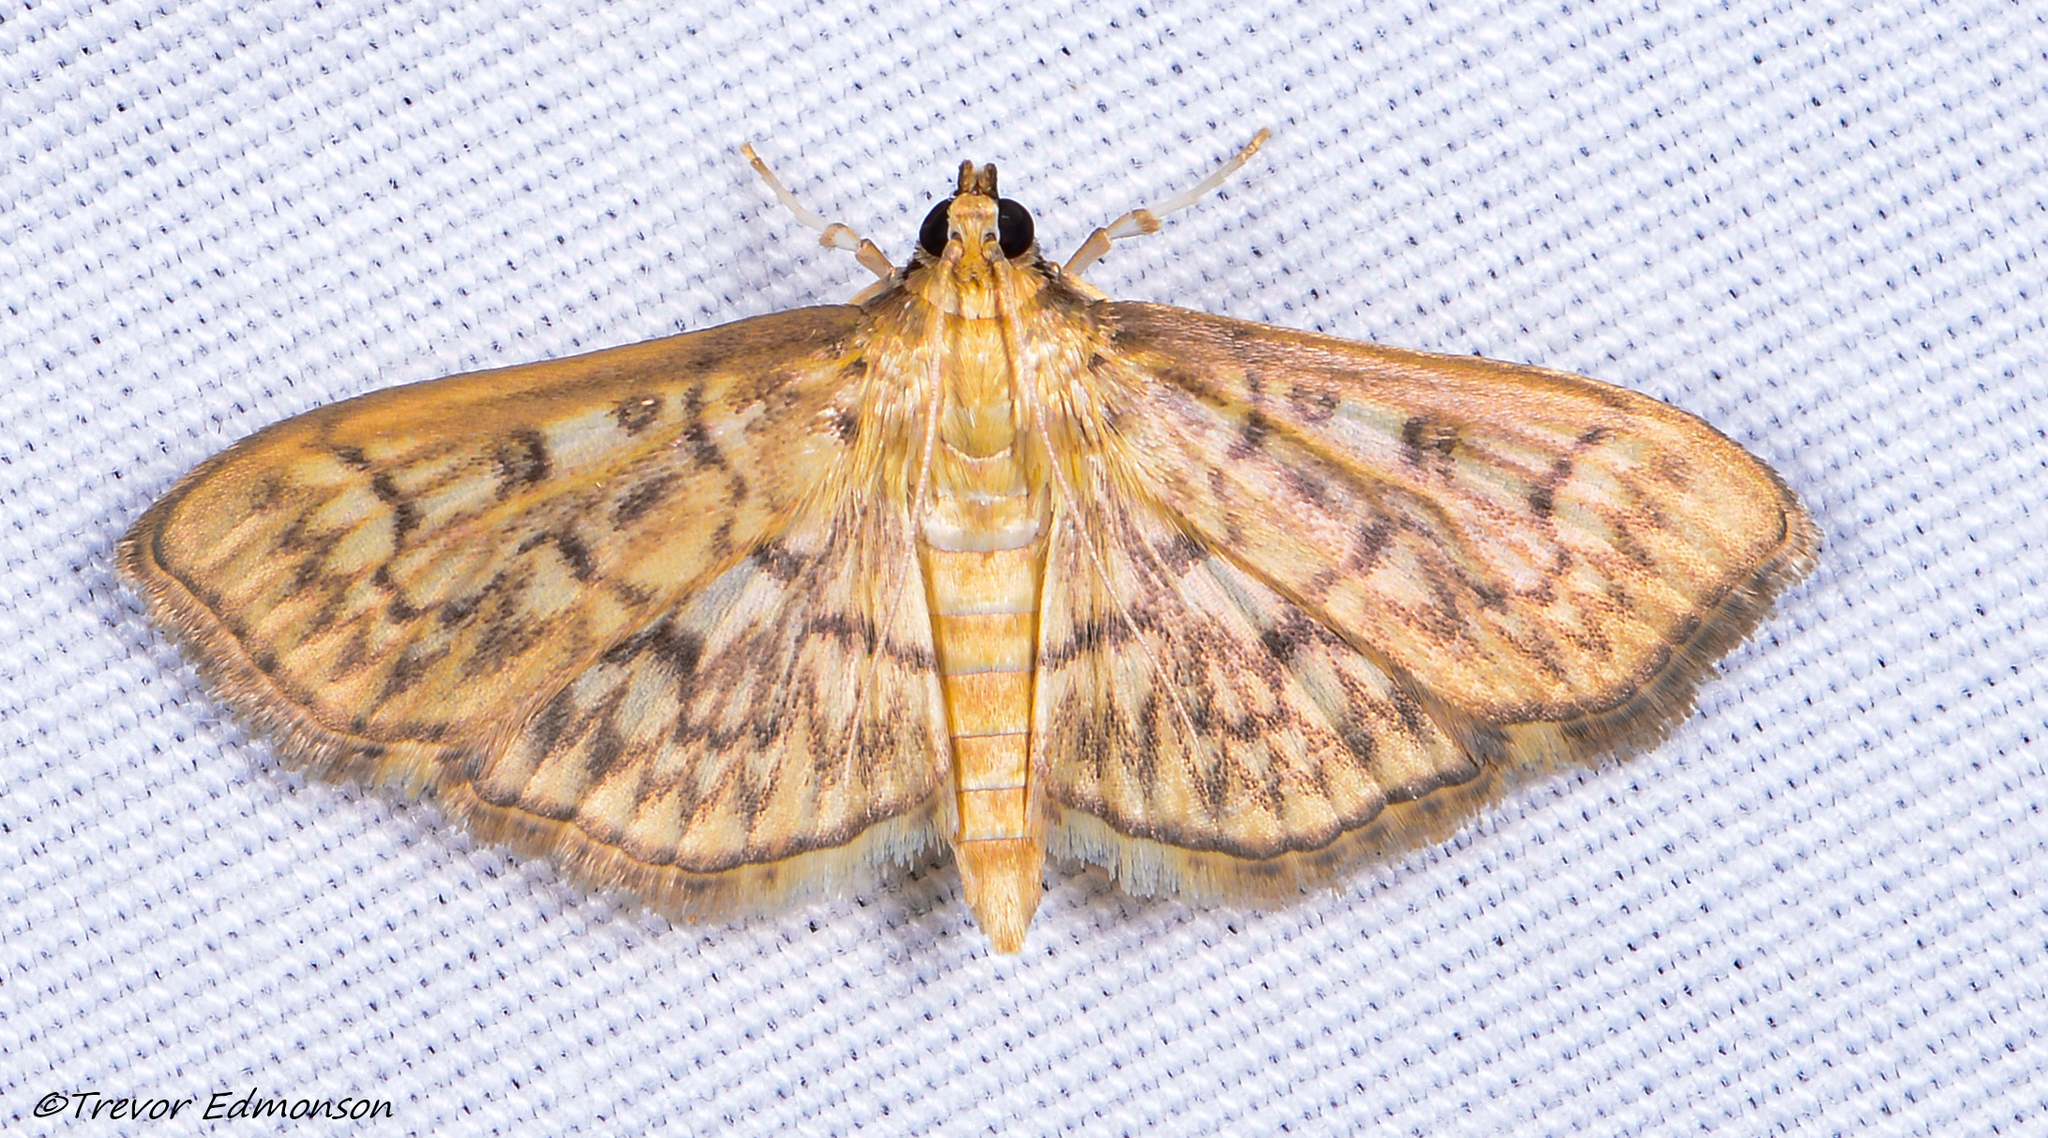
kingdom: Animalia
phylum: Arthropoda
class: Insecta
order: Lepidoptera
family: Crambidae
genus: Herpetogramma
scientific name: Herpetogramma pertextalis
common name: Bold-feathered grass moth
